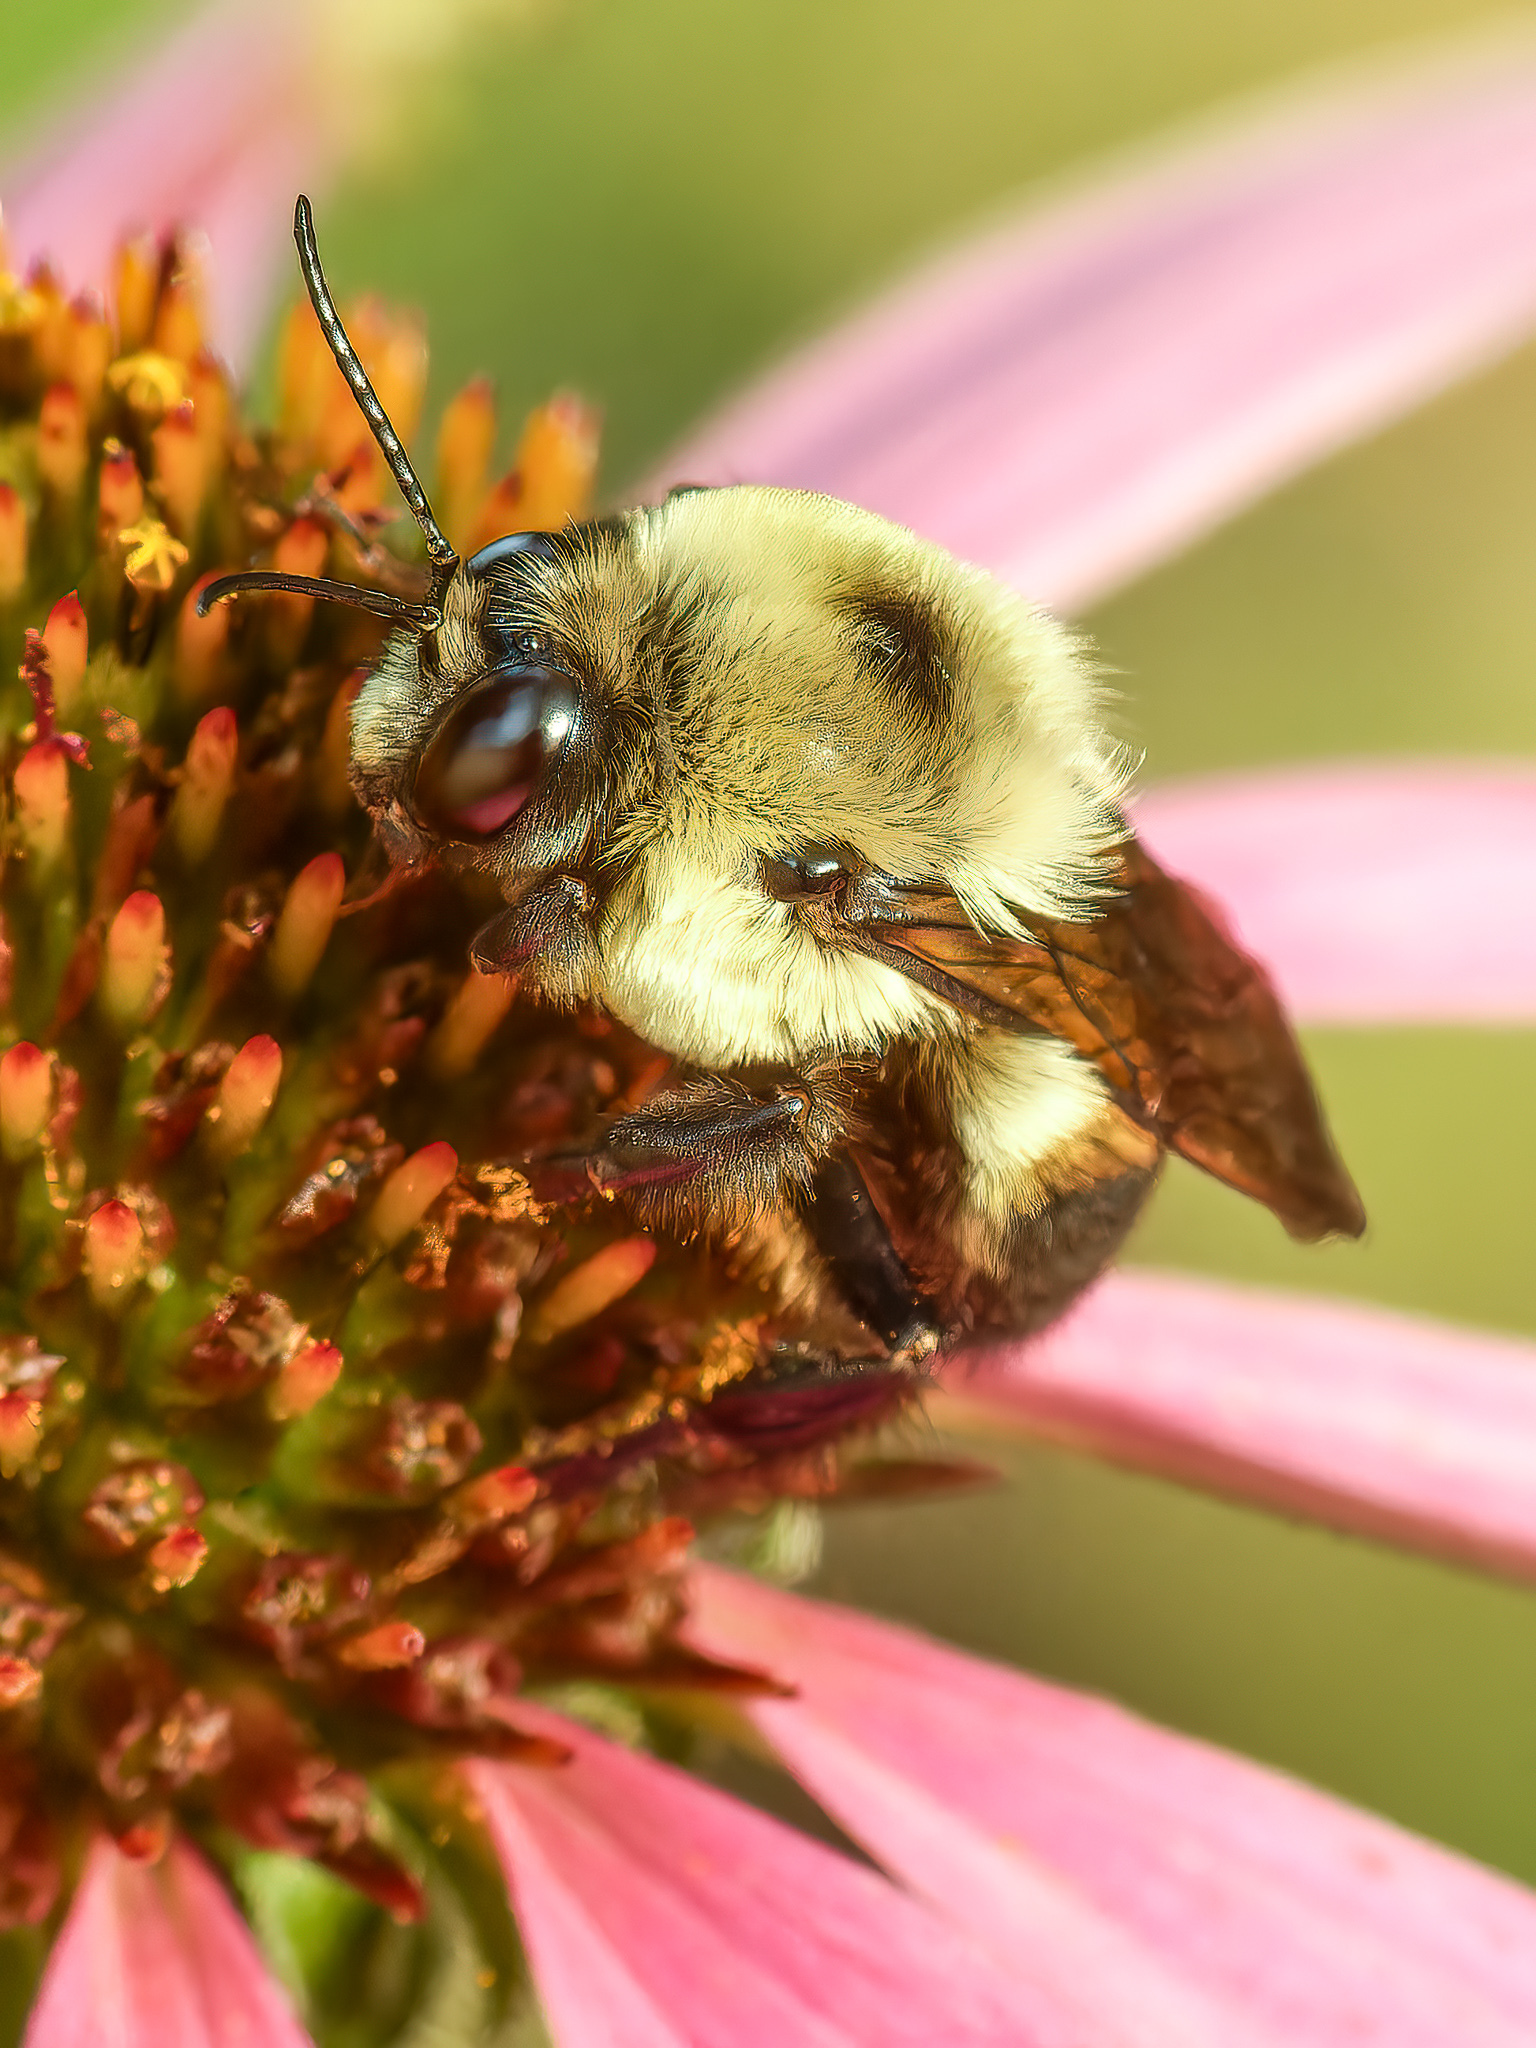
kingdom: Animalia
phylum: Arthropoda
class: Insecta
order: Hymenoptera
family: Apidae
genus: Bombus
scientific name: Bombus griseocollis
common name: Brown-belted bumble bee
